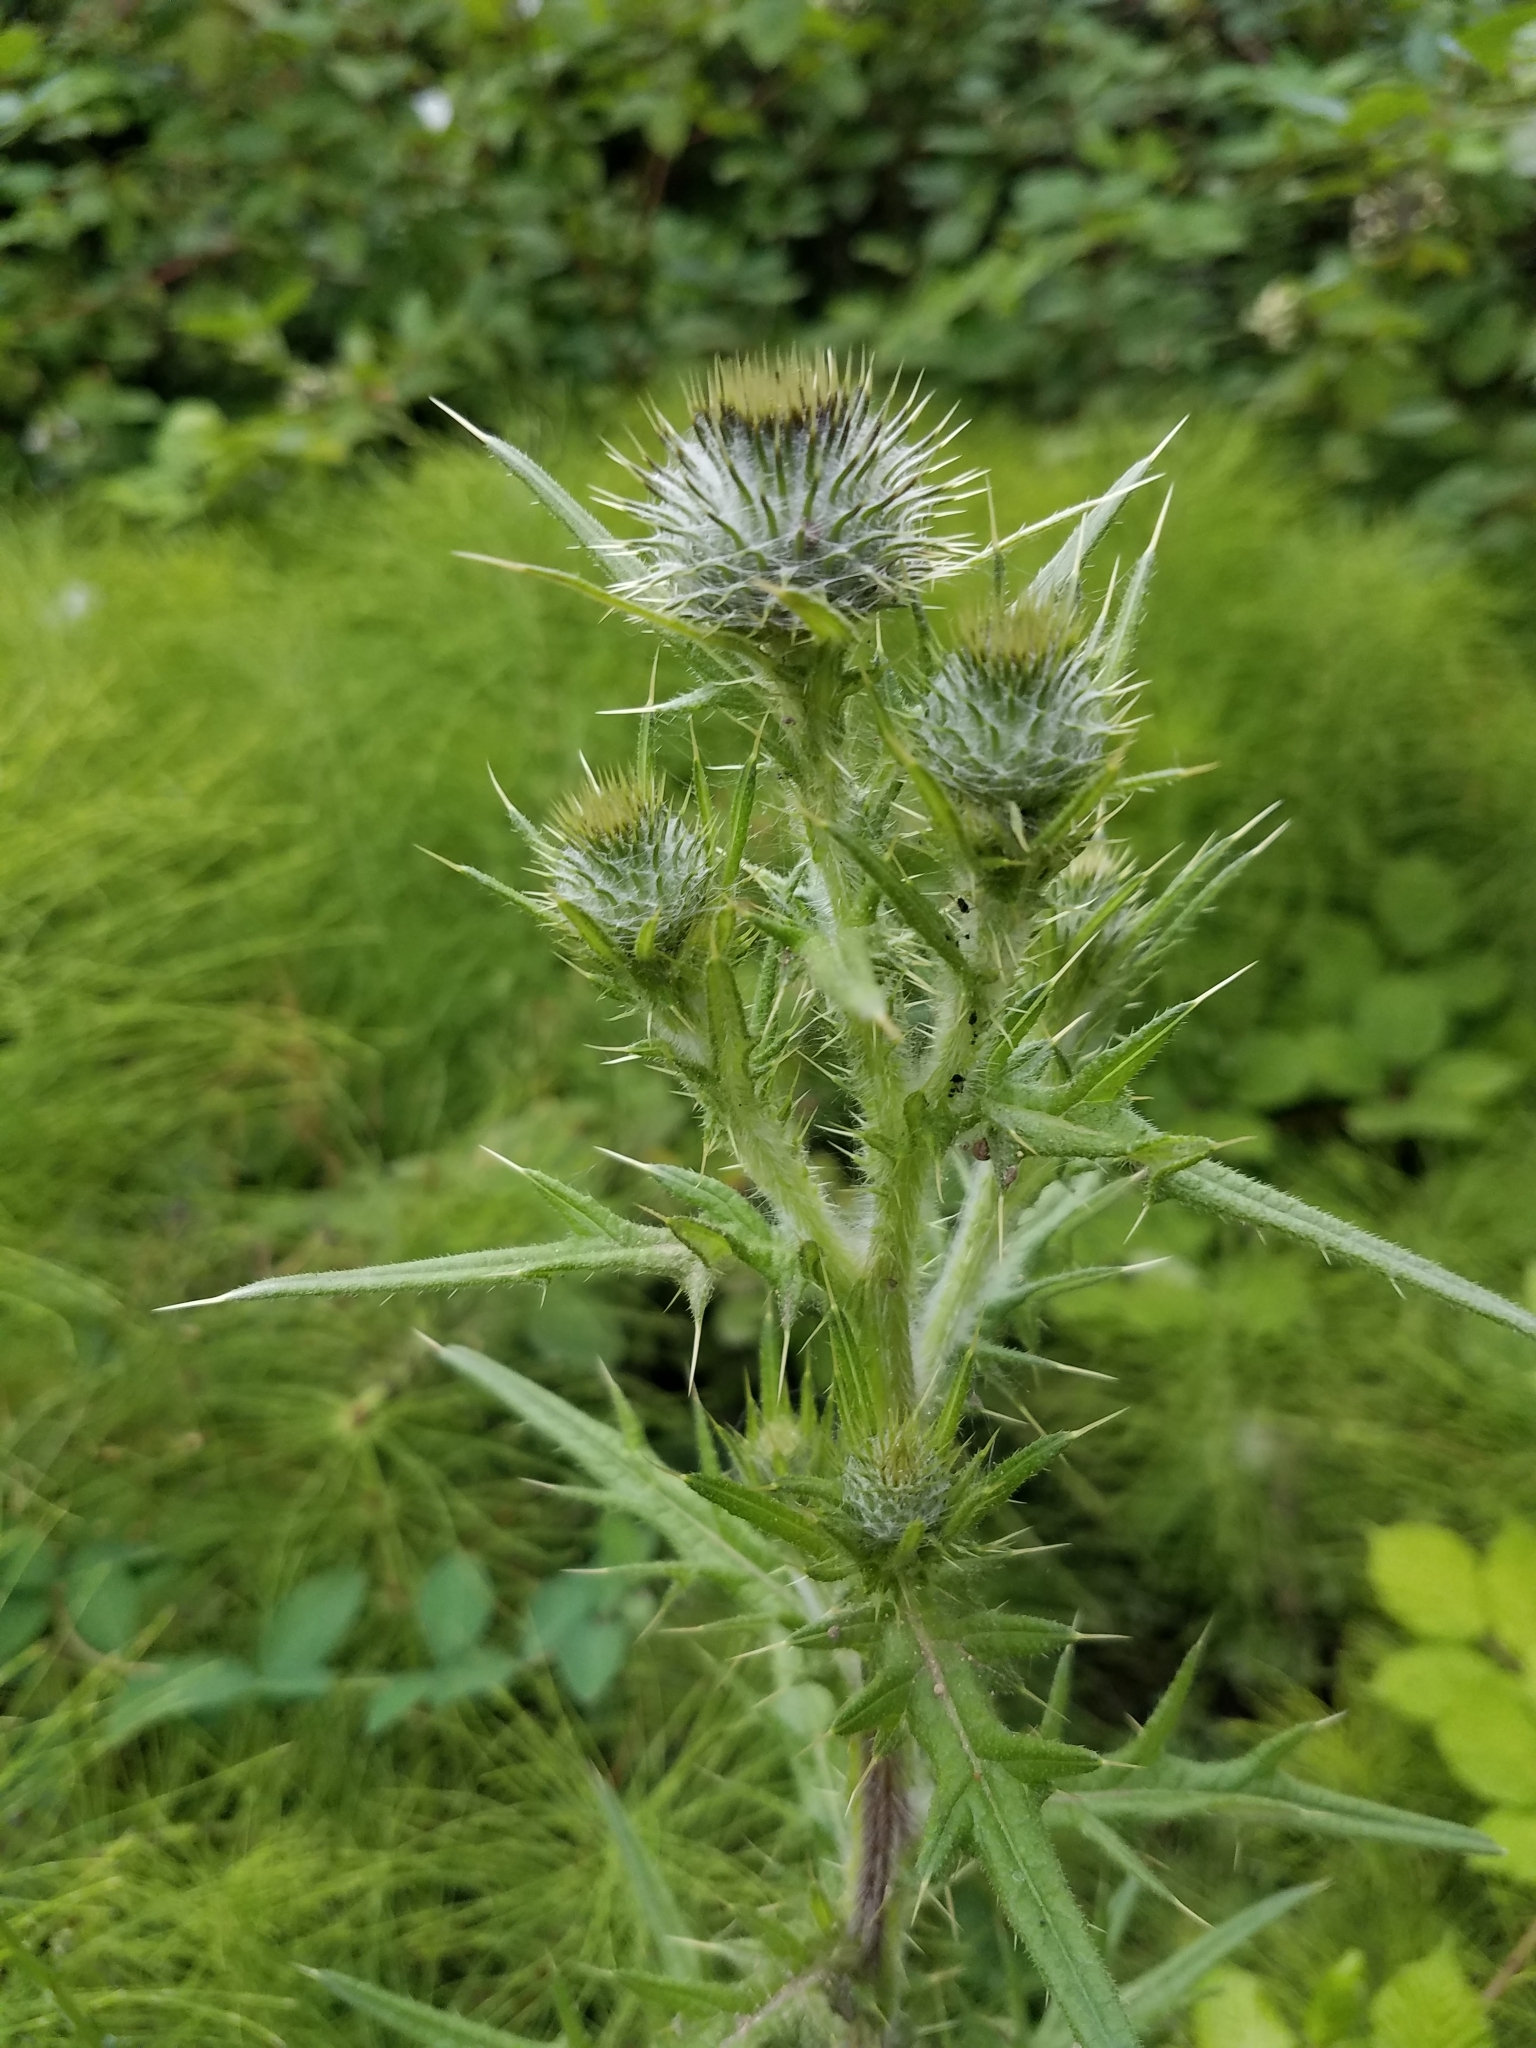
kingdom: Plantae
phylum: Tracheophyta
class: Magnoliopsida
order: Asterales
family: Asteraceae
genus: Cirsium
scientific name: Cirsium vulgare
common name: Bull thistle
